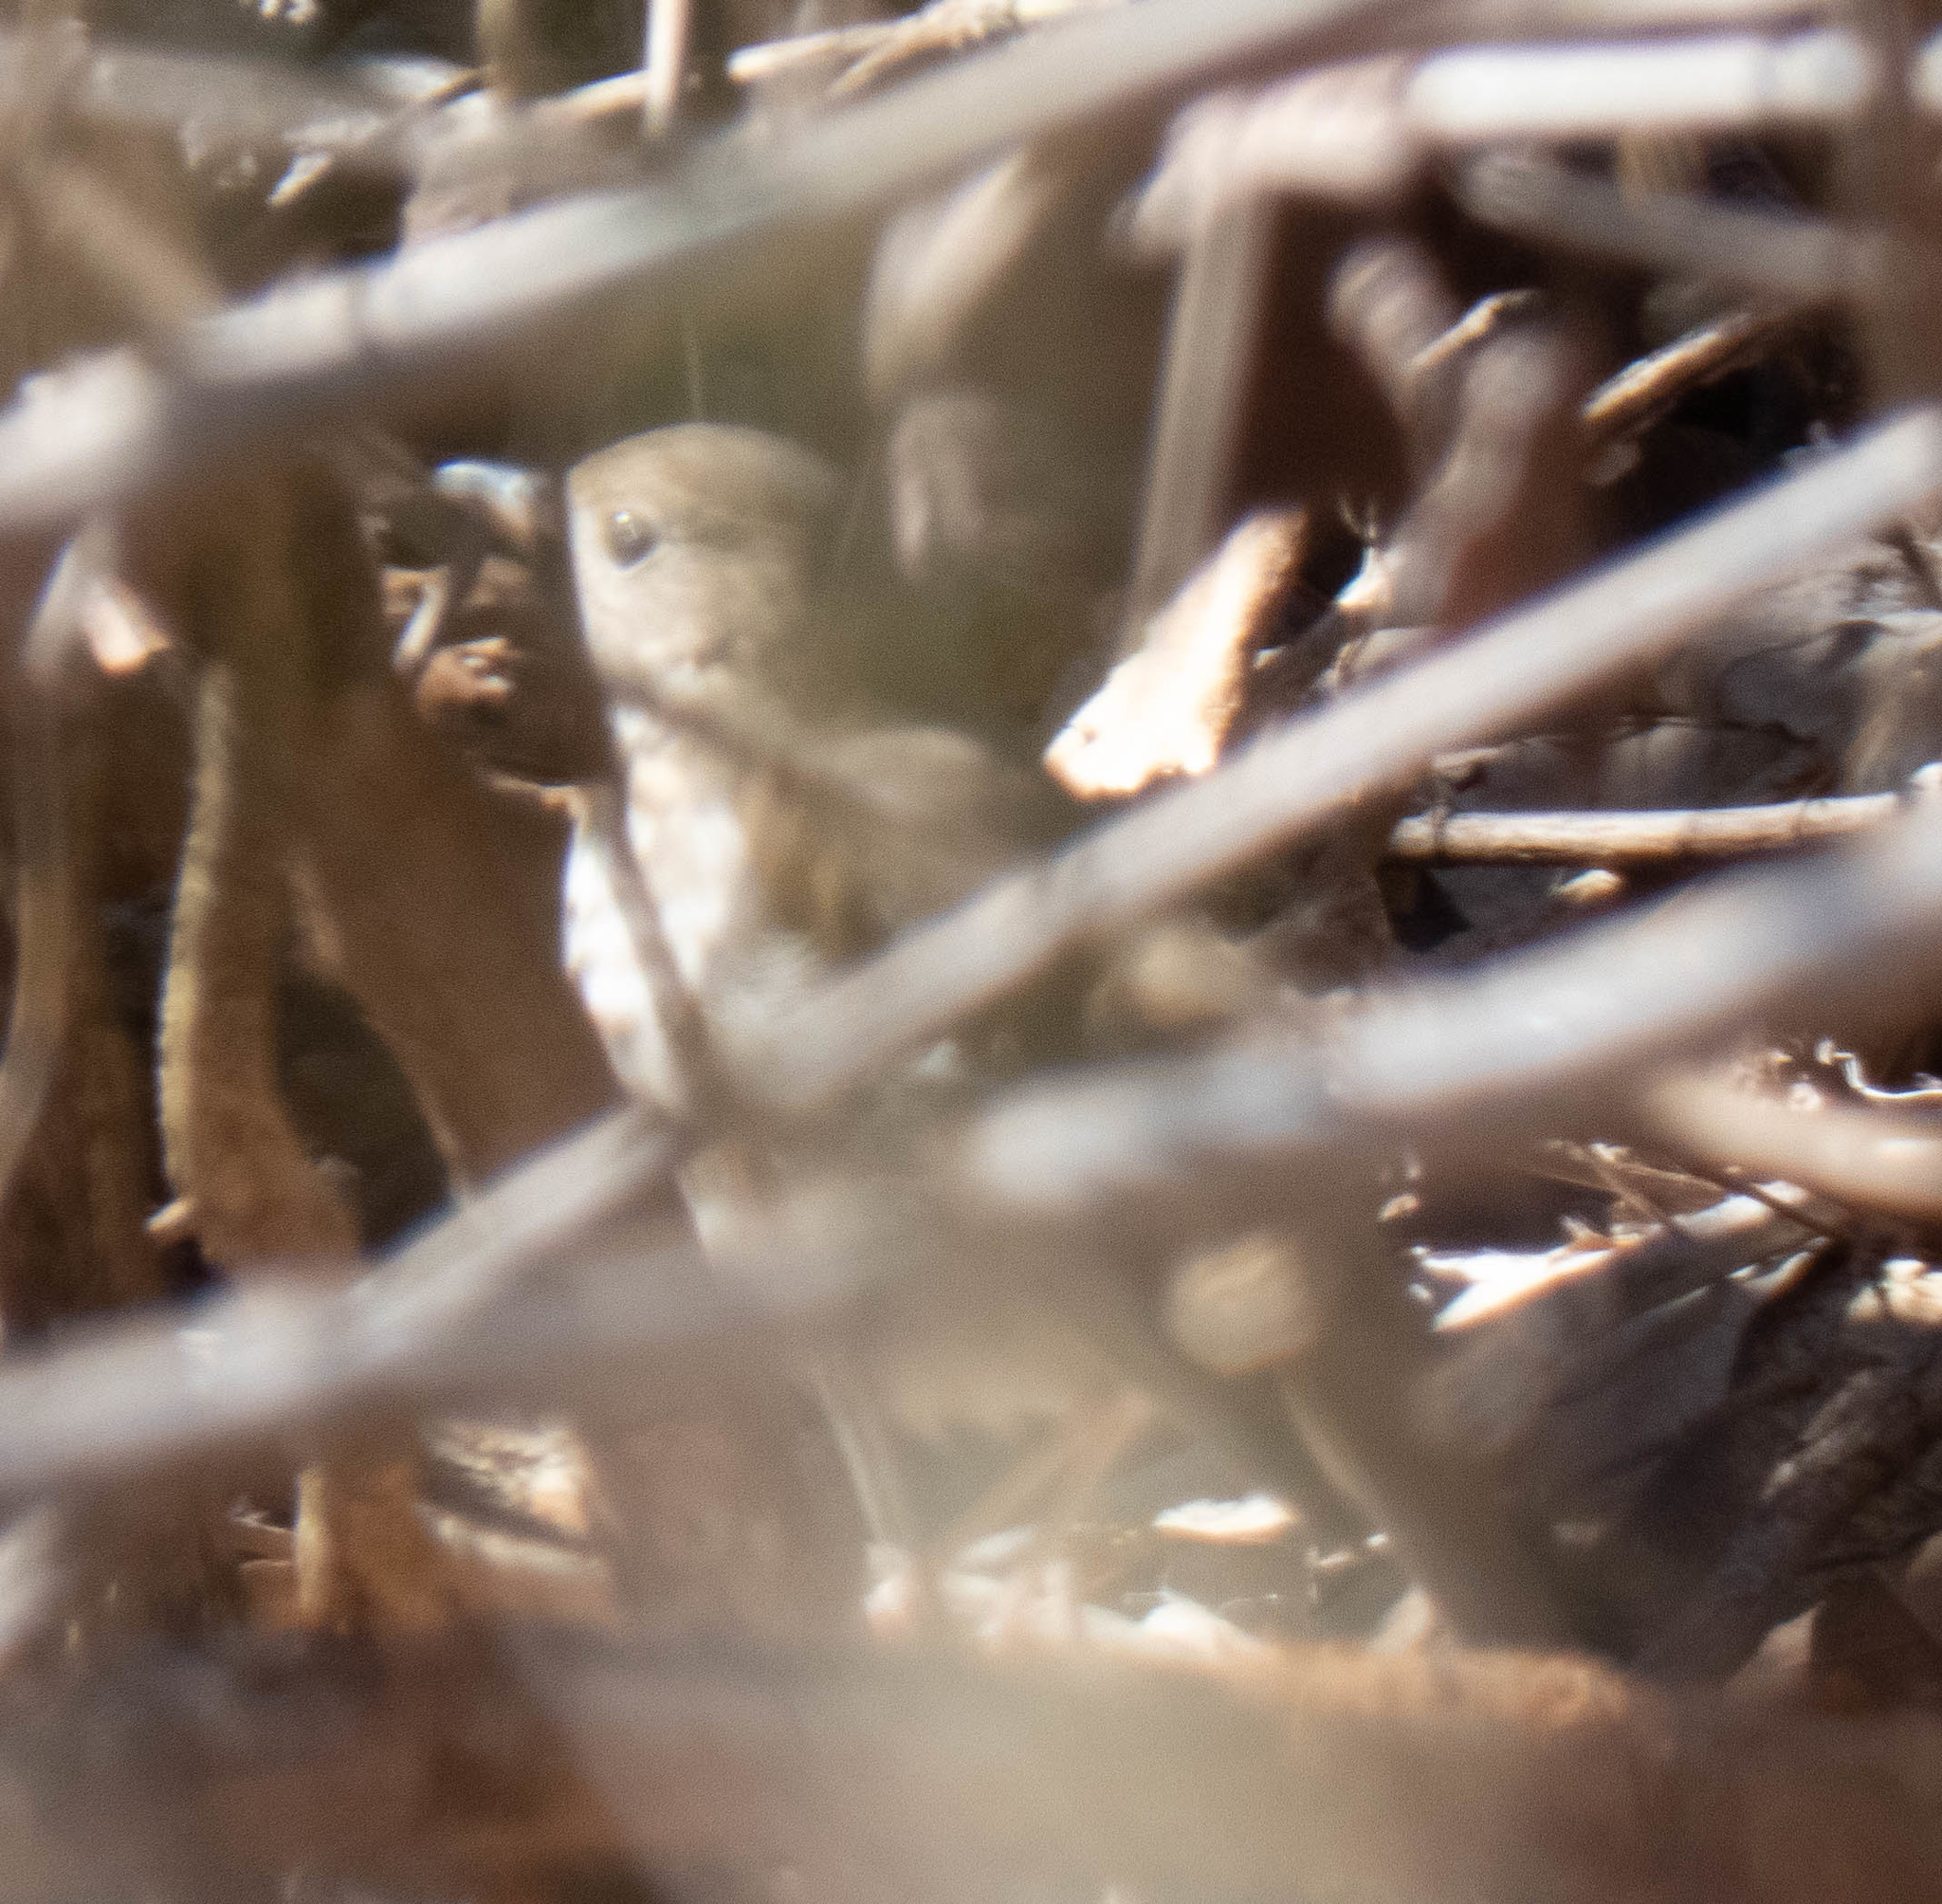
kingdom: Animalia
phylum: Chordata
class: Aves
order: Passeriformes
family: Turdidae
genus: Catharus
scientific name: Catharus guttatus
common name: Hermit thrush
